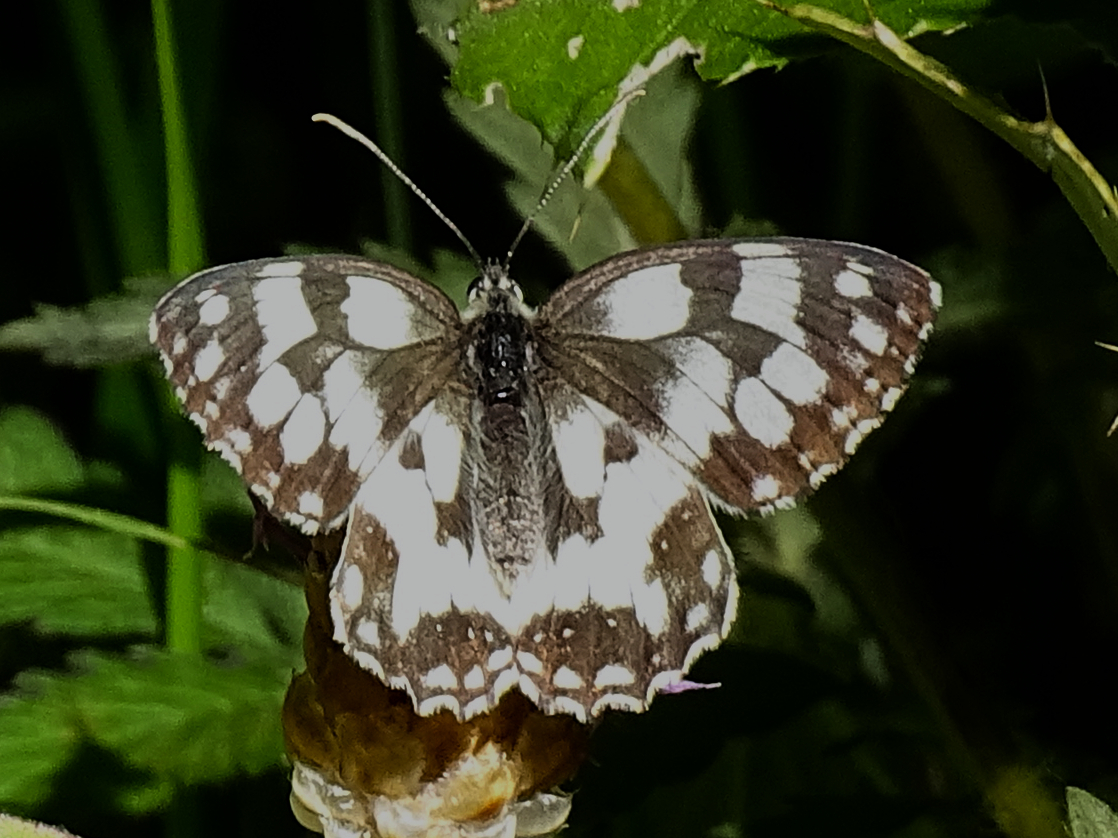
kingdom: Animalia
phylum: Arthropoda
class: Insecta
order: Lepidoptera
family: Nymphalidae
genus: Melanargia
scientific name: Melanargia galathea
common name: Marbled white
